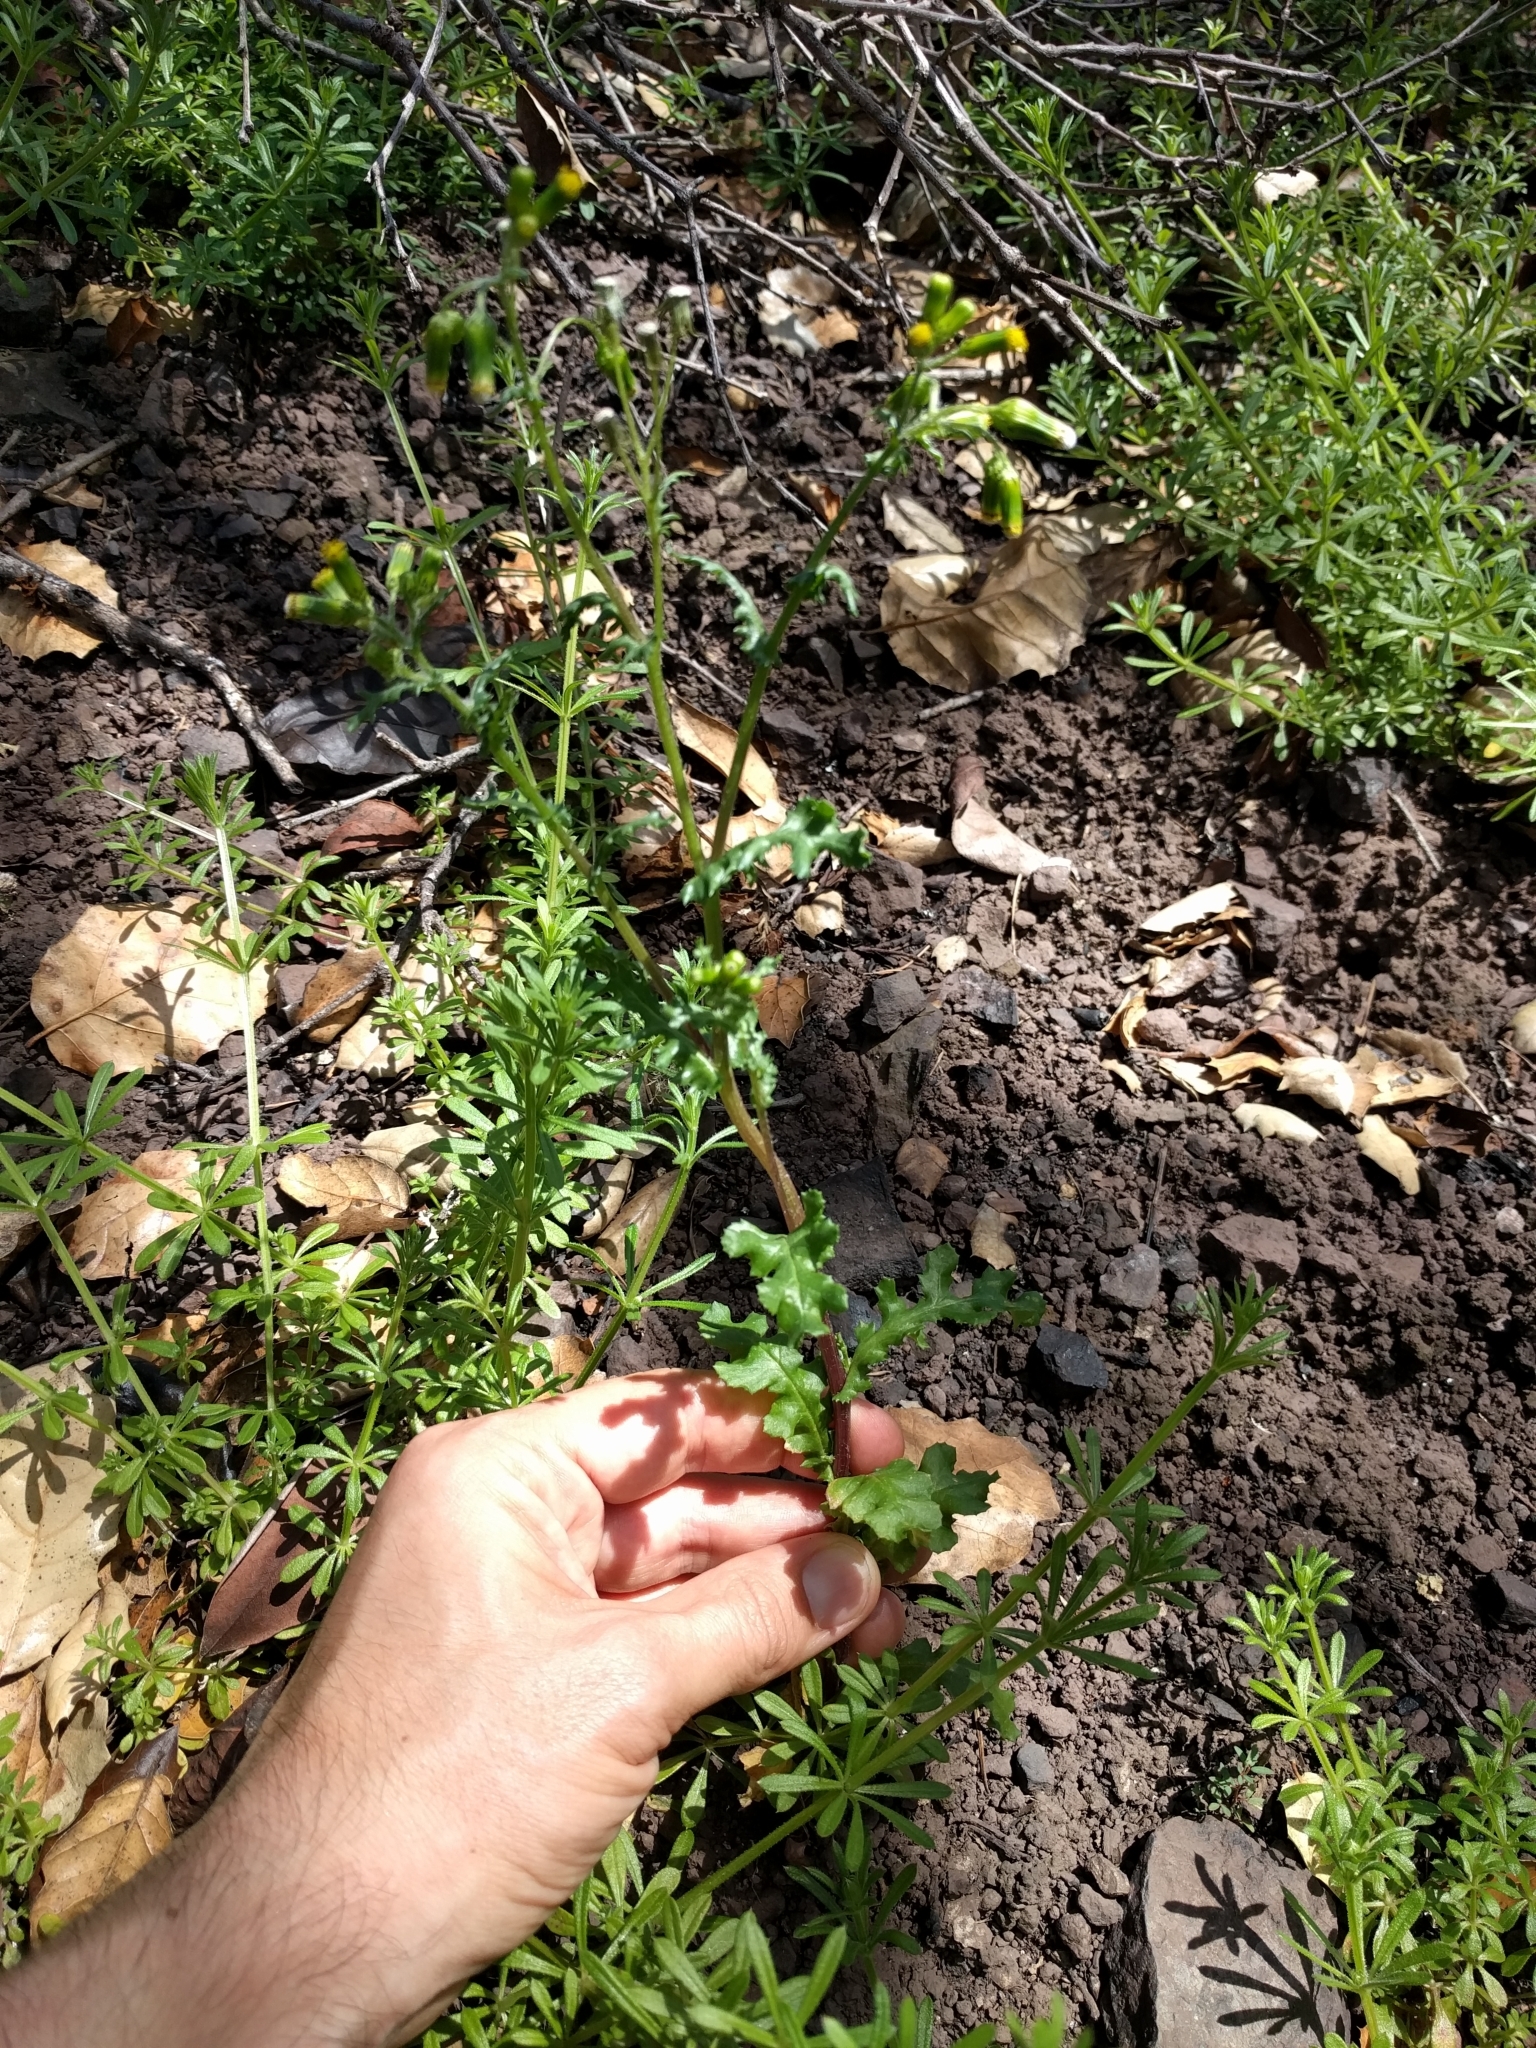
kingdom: Plantae
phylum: Tracheophyta
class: Magnoliopsida
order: Asterales
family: Asteraceae
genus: Senecio
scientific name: Senecio vulgaris
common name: Old-man-in-the-spring
